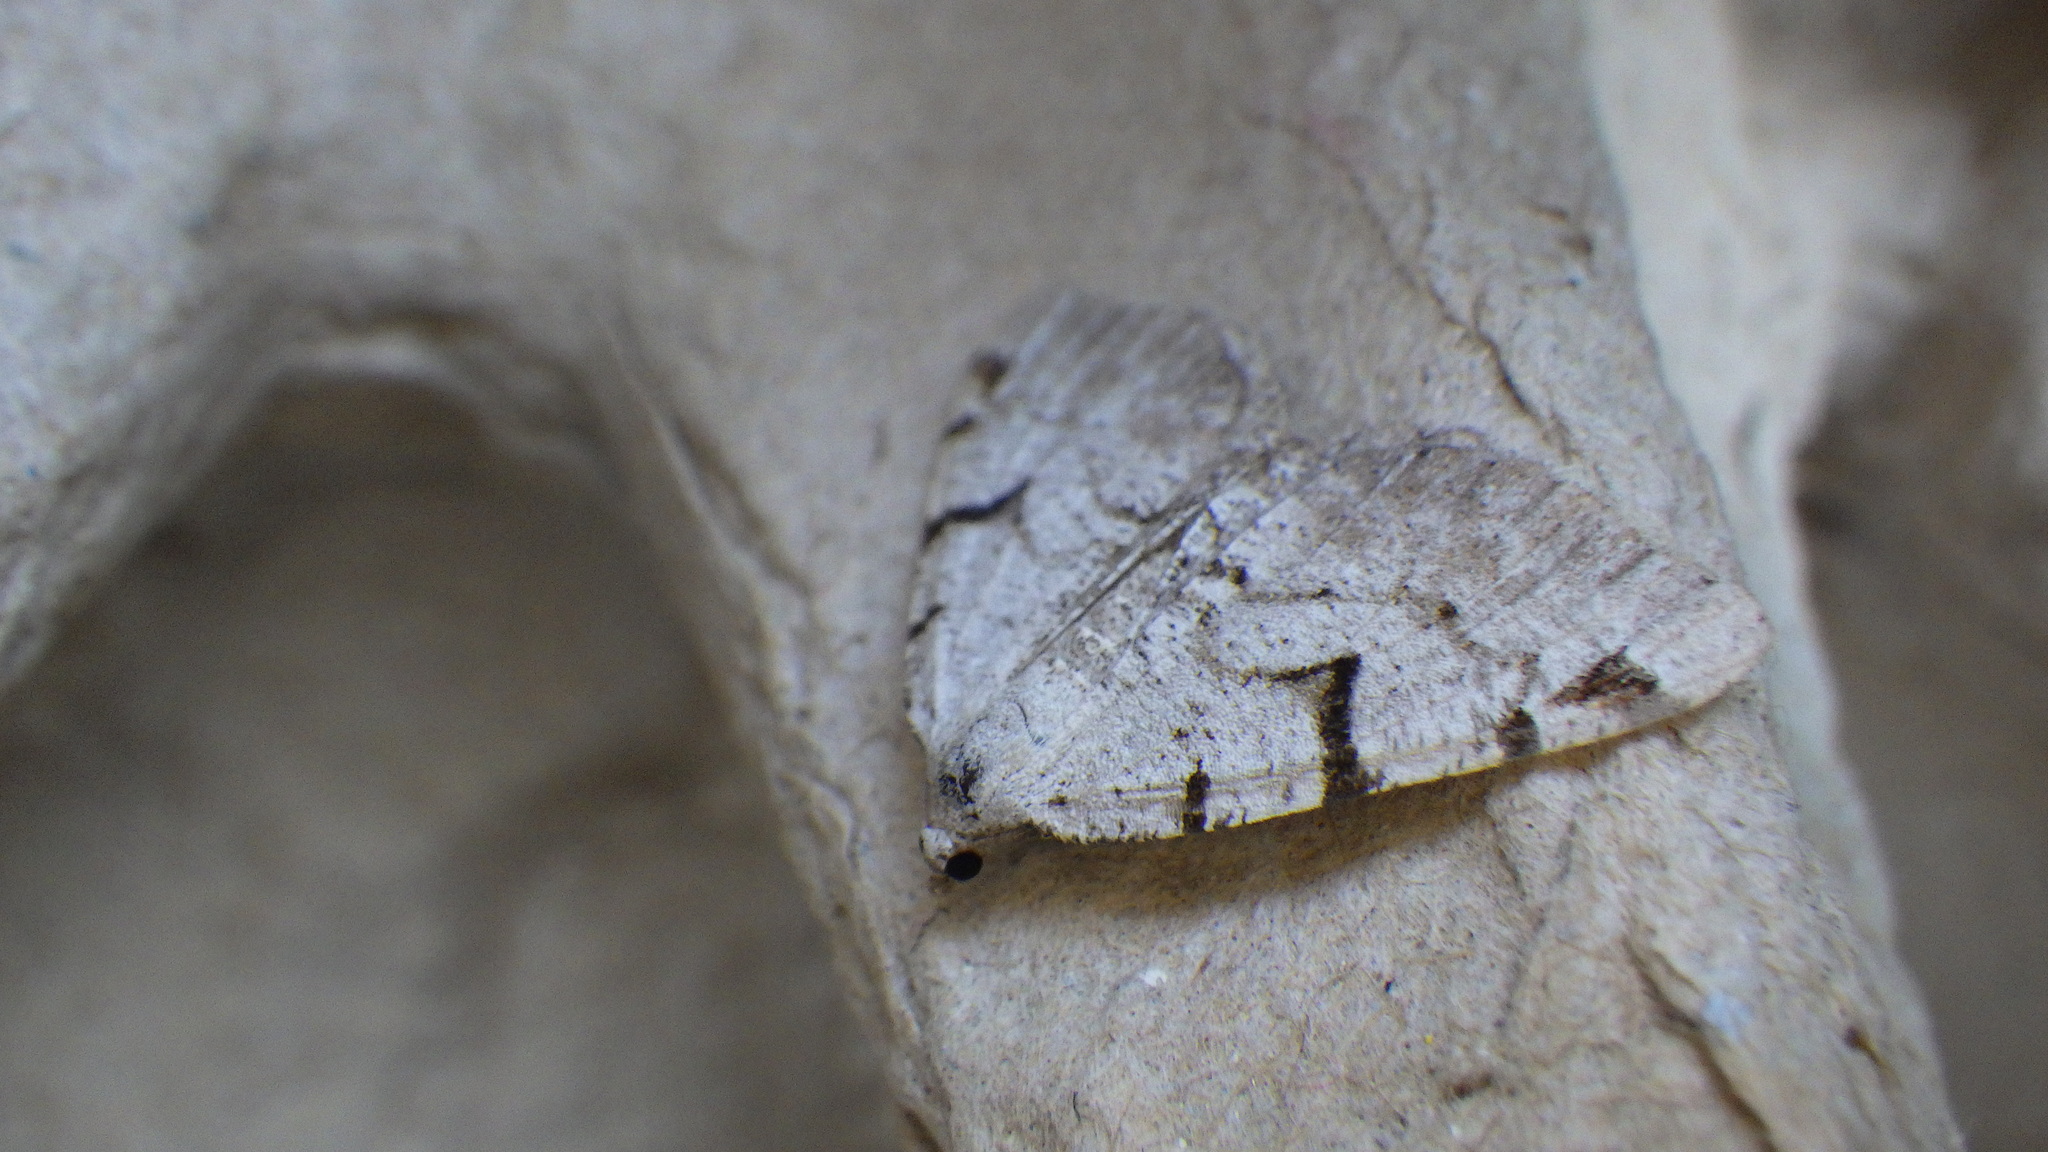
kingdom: Animalia
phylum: Arthropoda
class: Insecta
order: Lepidoptera
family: Geometridae
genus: Macaria
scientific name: Macaria wauaria
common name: V-moth
